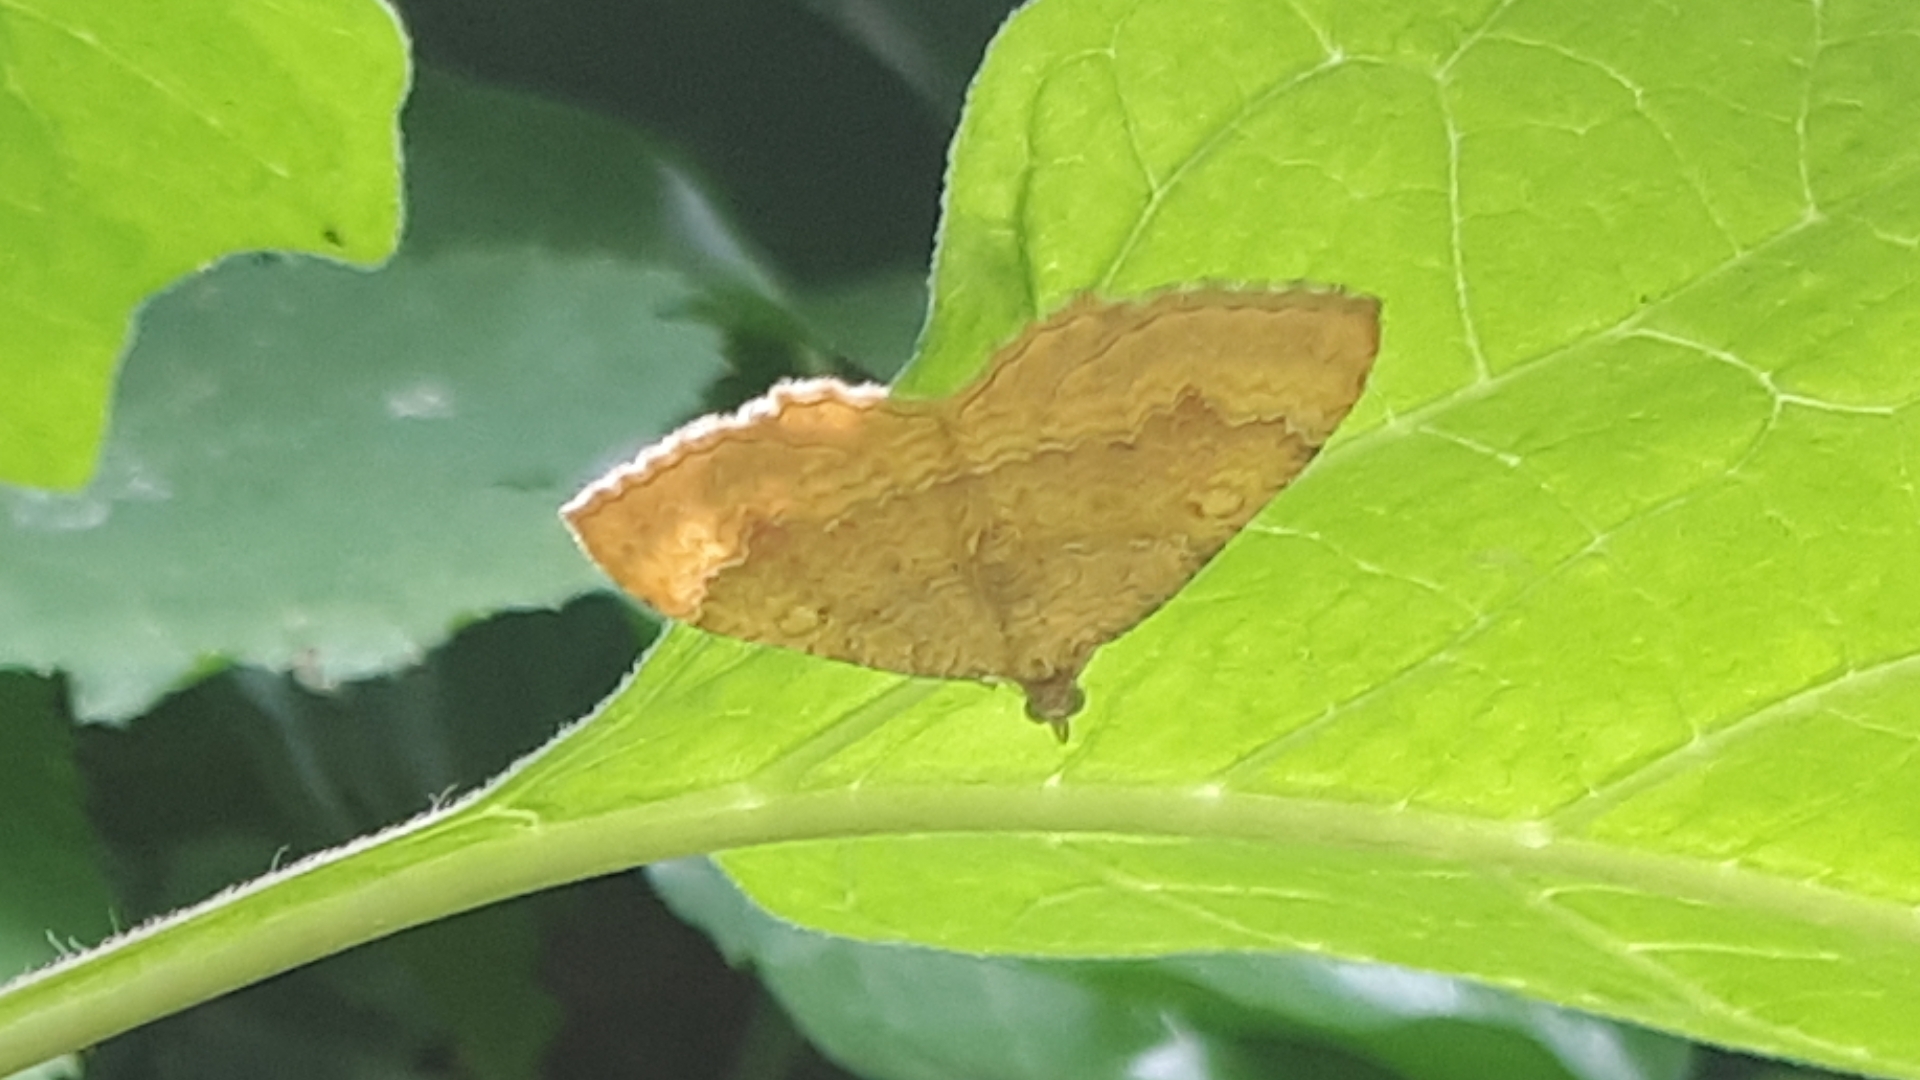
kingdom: Animalia
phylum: Arthropoda
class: Insecta
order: Lepidoptera
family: Geometridae
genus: Camptogramma
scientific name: Camptogramma bilineata
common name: Yellow shell
